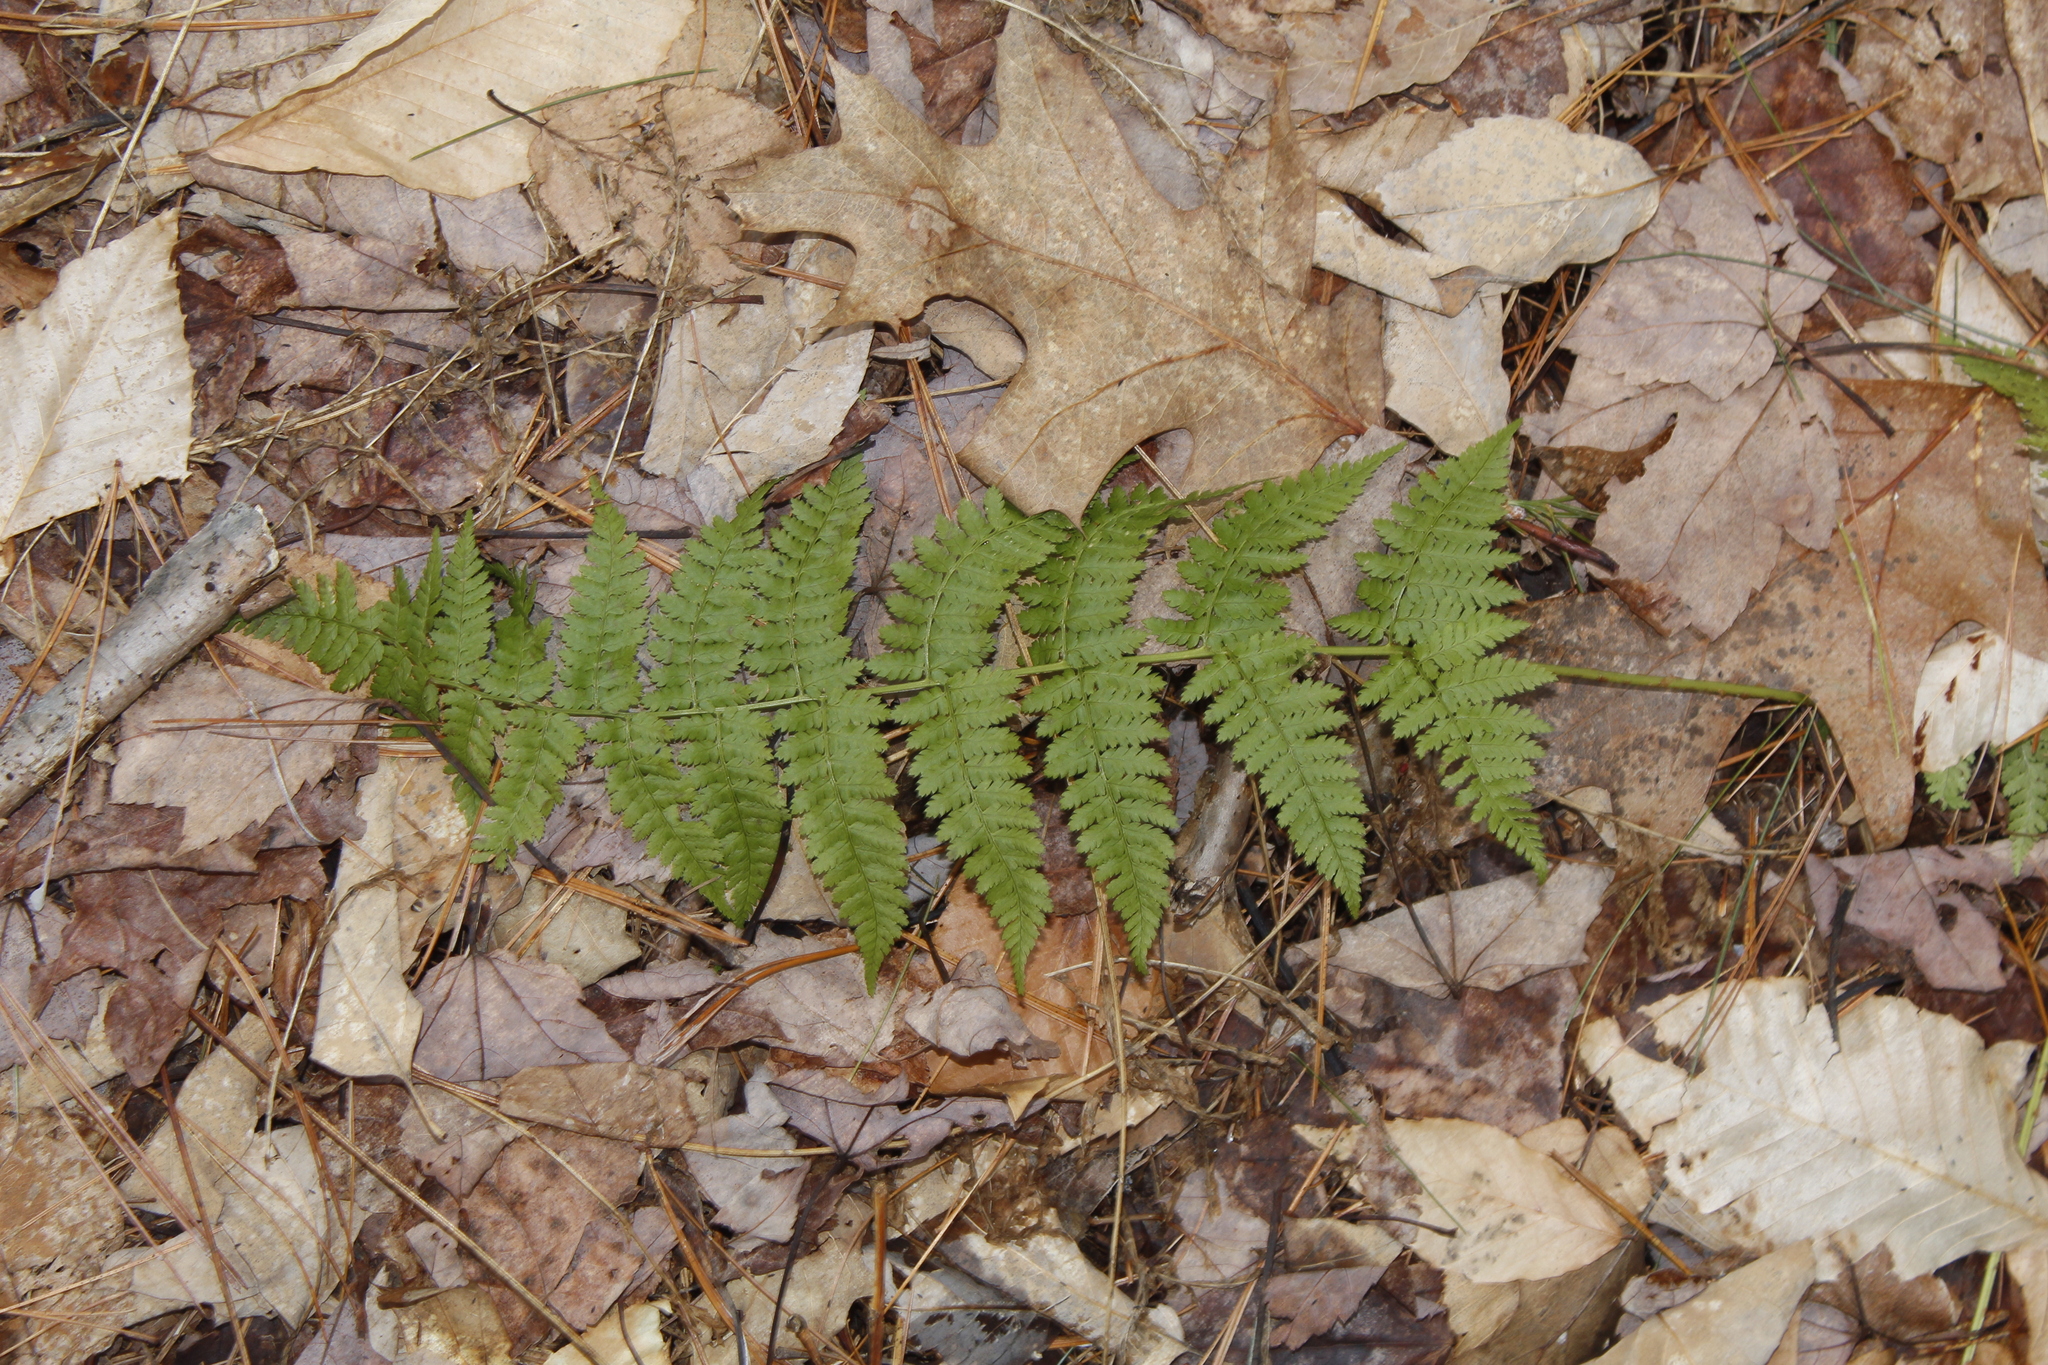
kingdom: Plantae
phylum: Tracheophyta
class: Polypodiopsida
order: Polypodiales
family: Dryopteridaceae
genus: Dryopteris
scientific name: Dryopteris intermedia
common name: Evergreen wood fern
